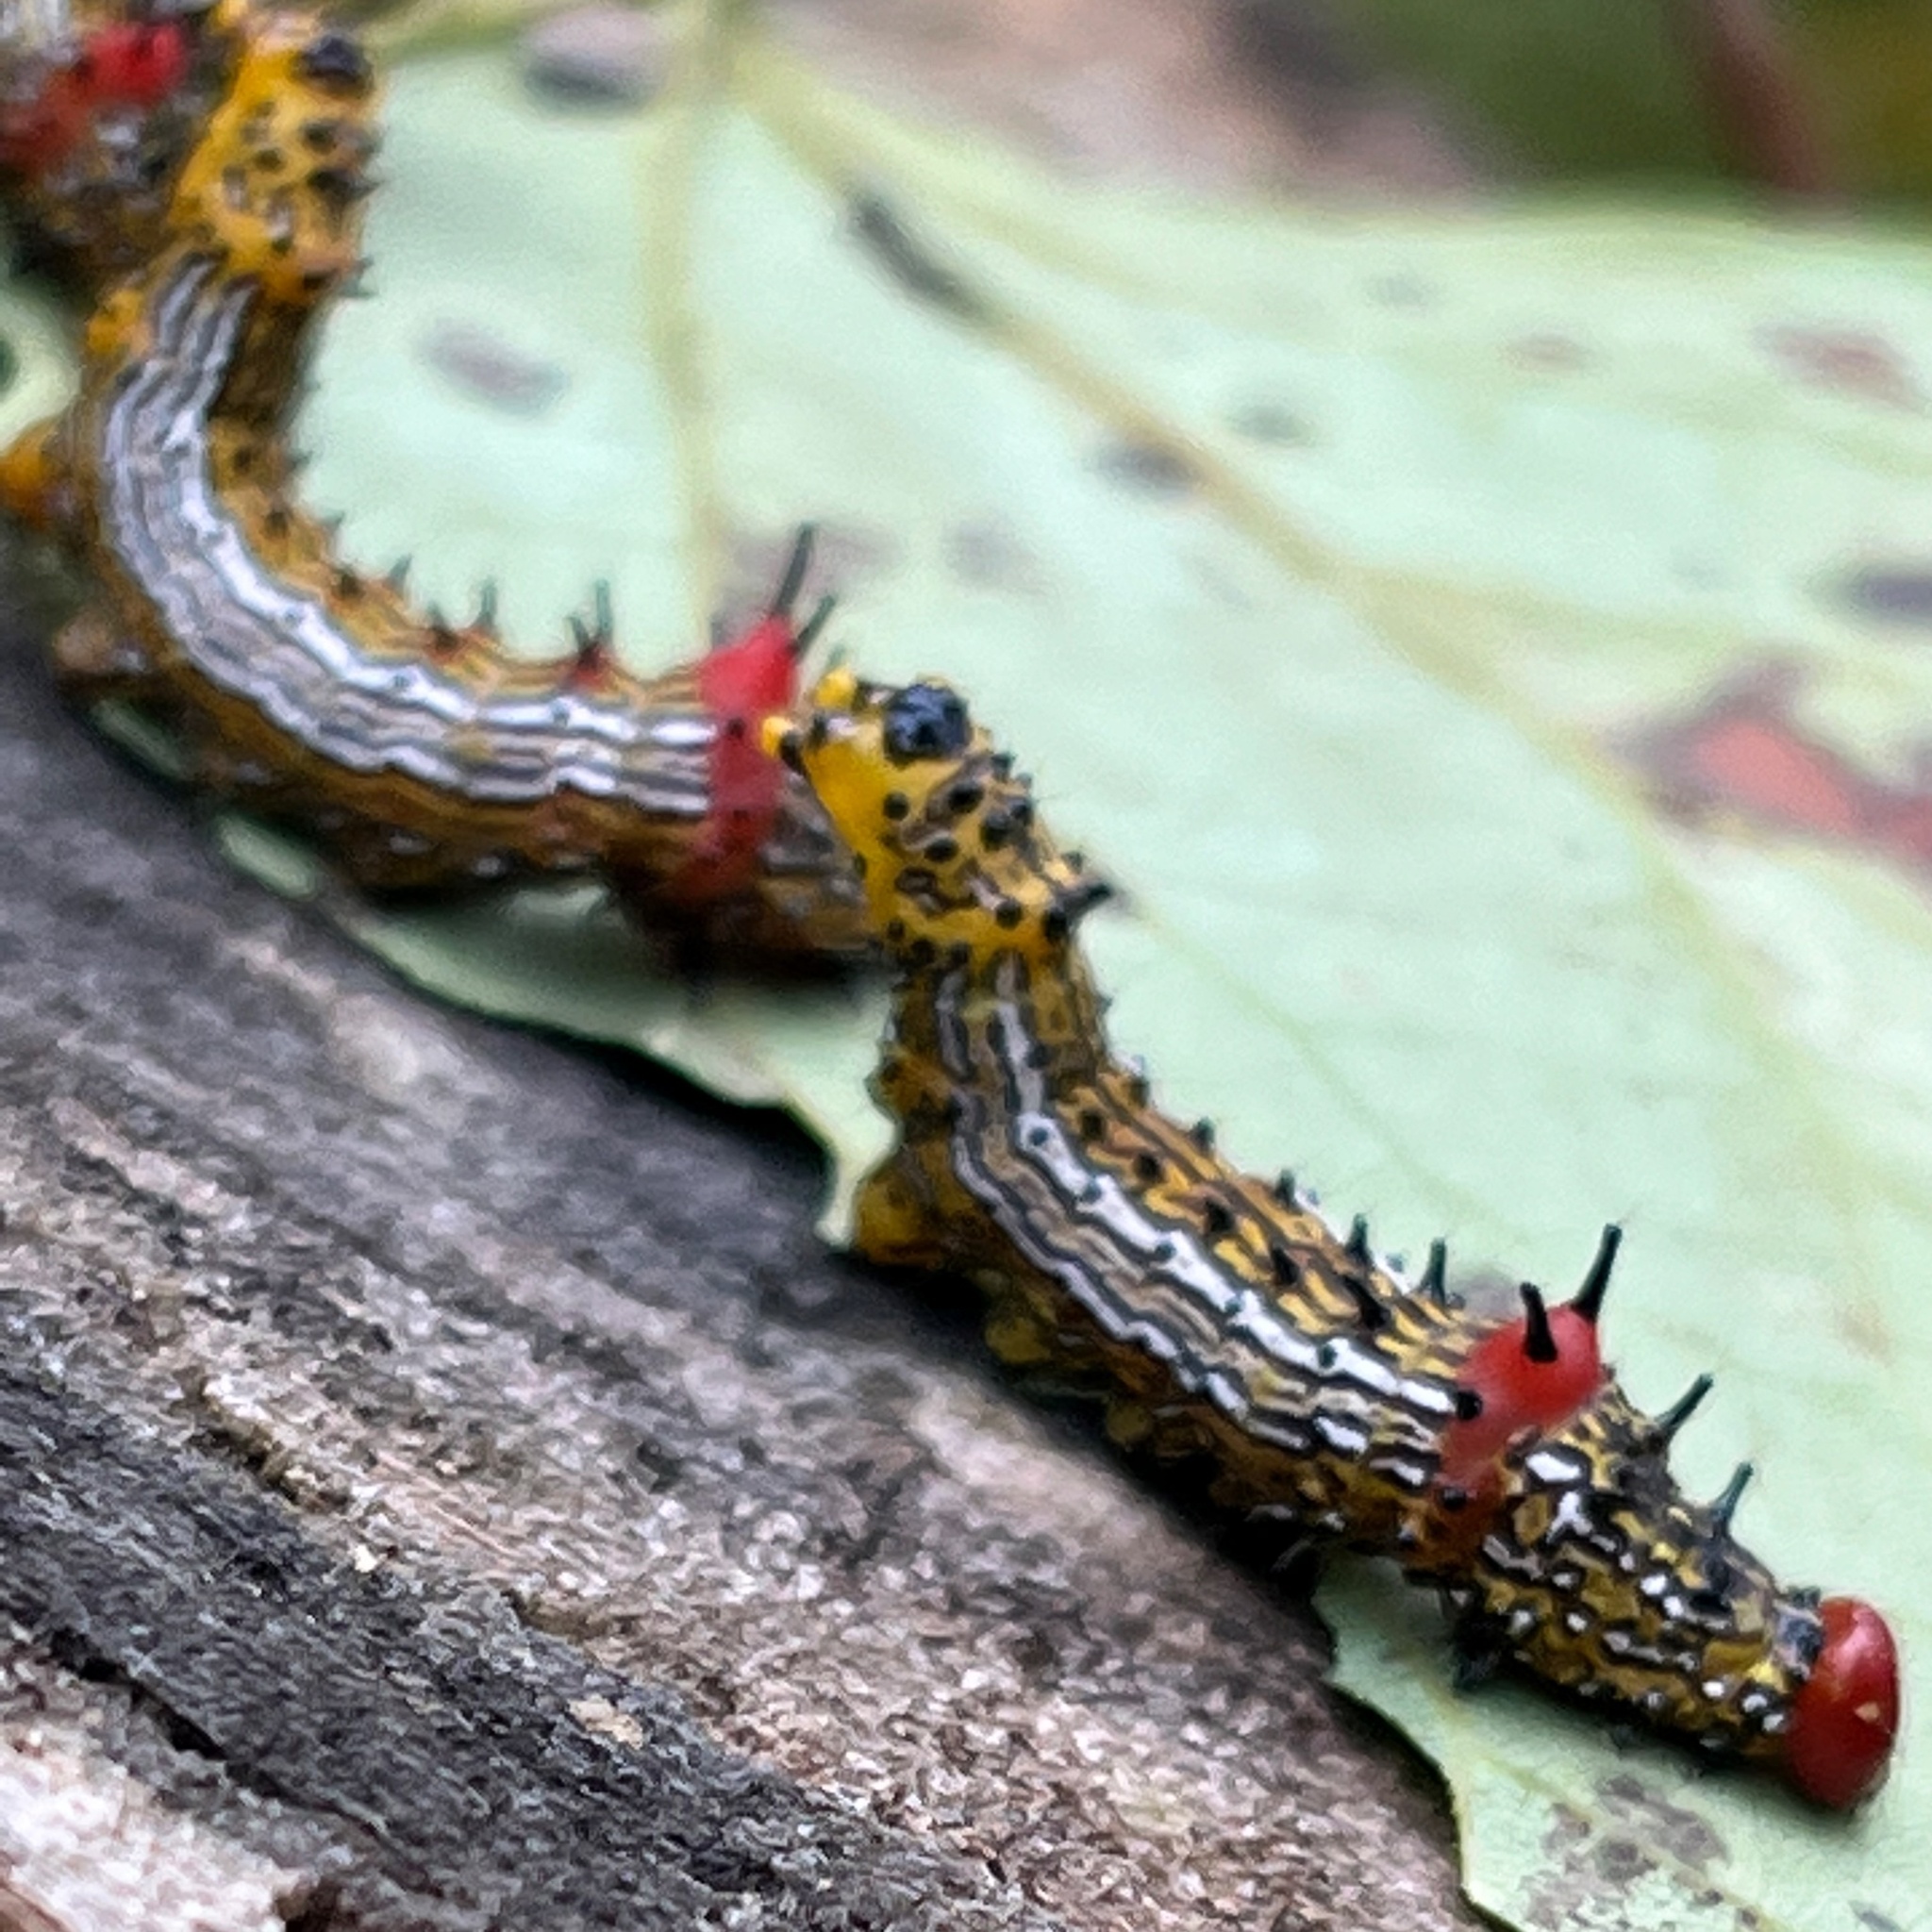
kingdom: Animalia
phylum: Arthropoda
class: Insecta
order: Lepidoptera
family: Notodontidae
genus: Schizura
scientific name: Schizura
